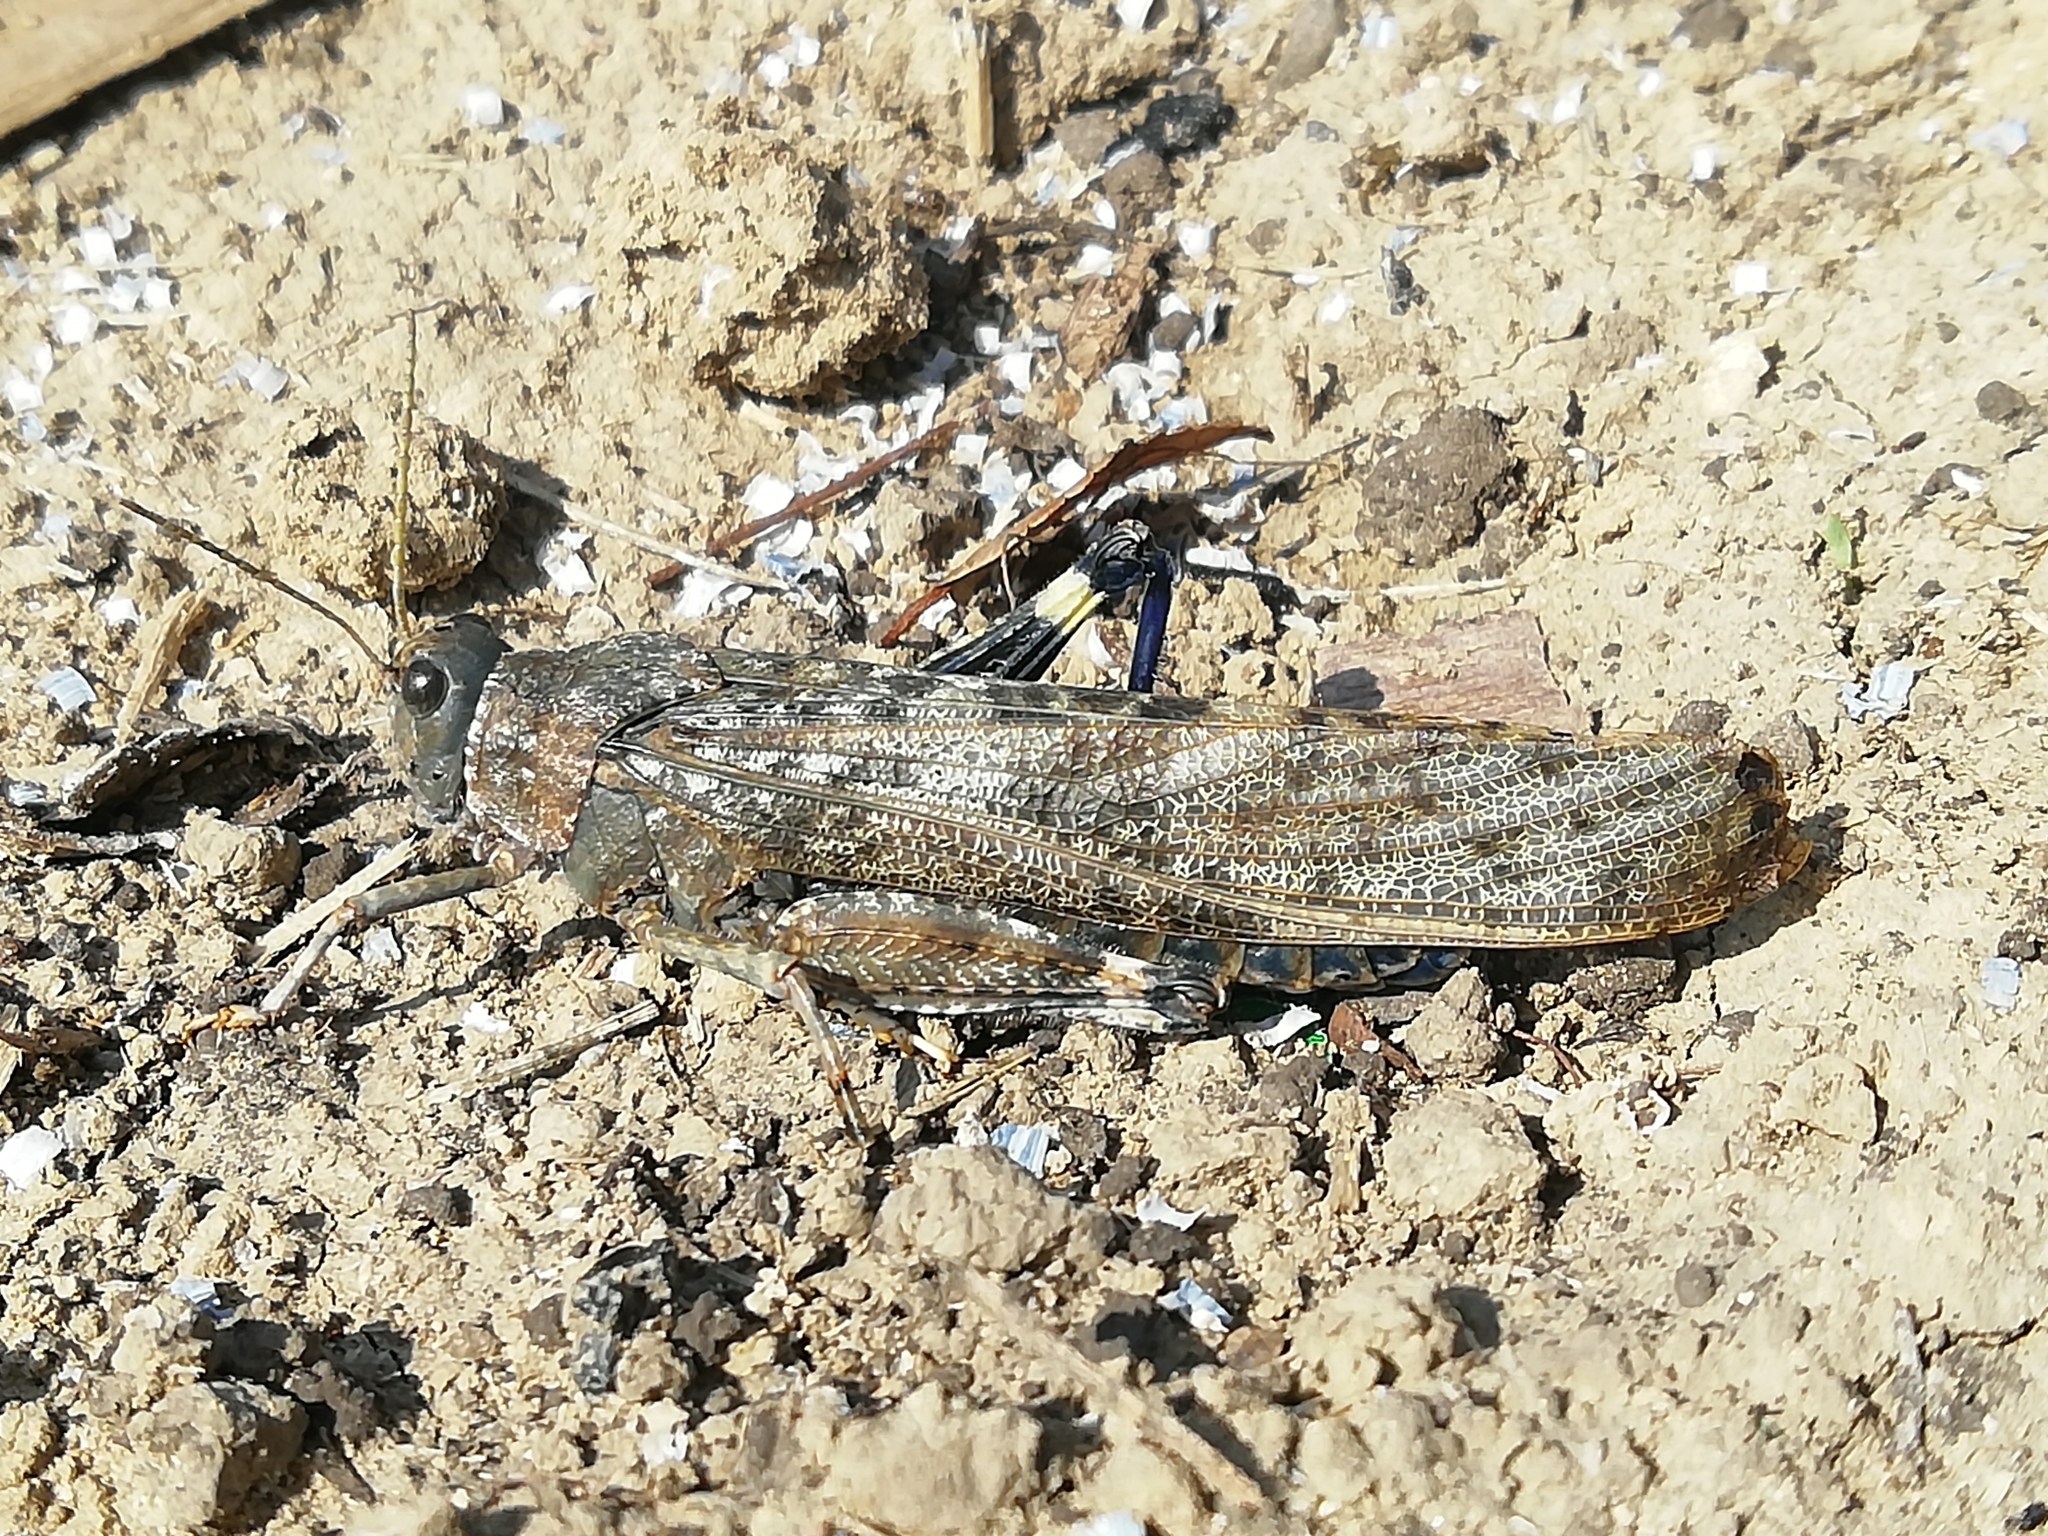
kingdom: Animalia
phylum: Arthropoda
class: Insecta
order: Orthoptera
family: Acrididae
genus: Bryodema
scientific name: Bryodema gebleri
